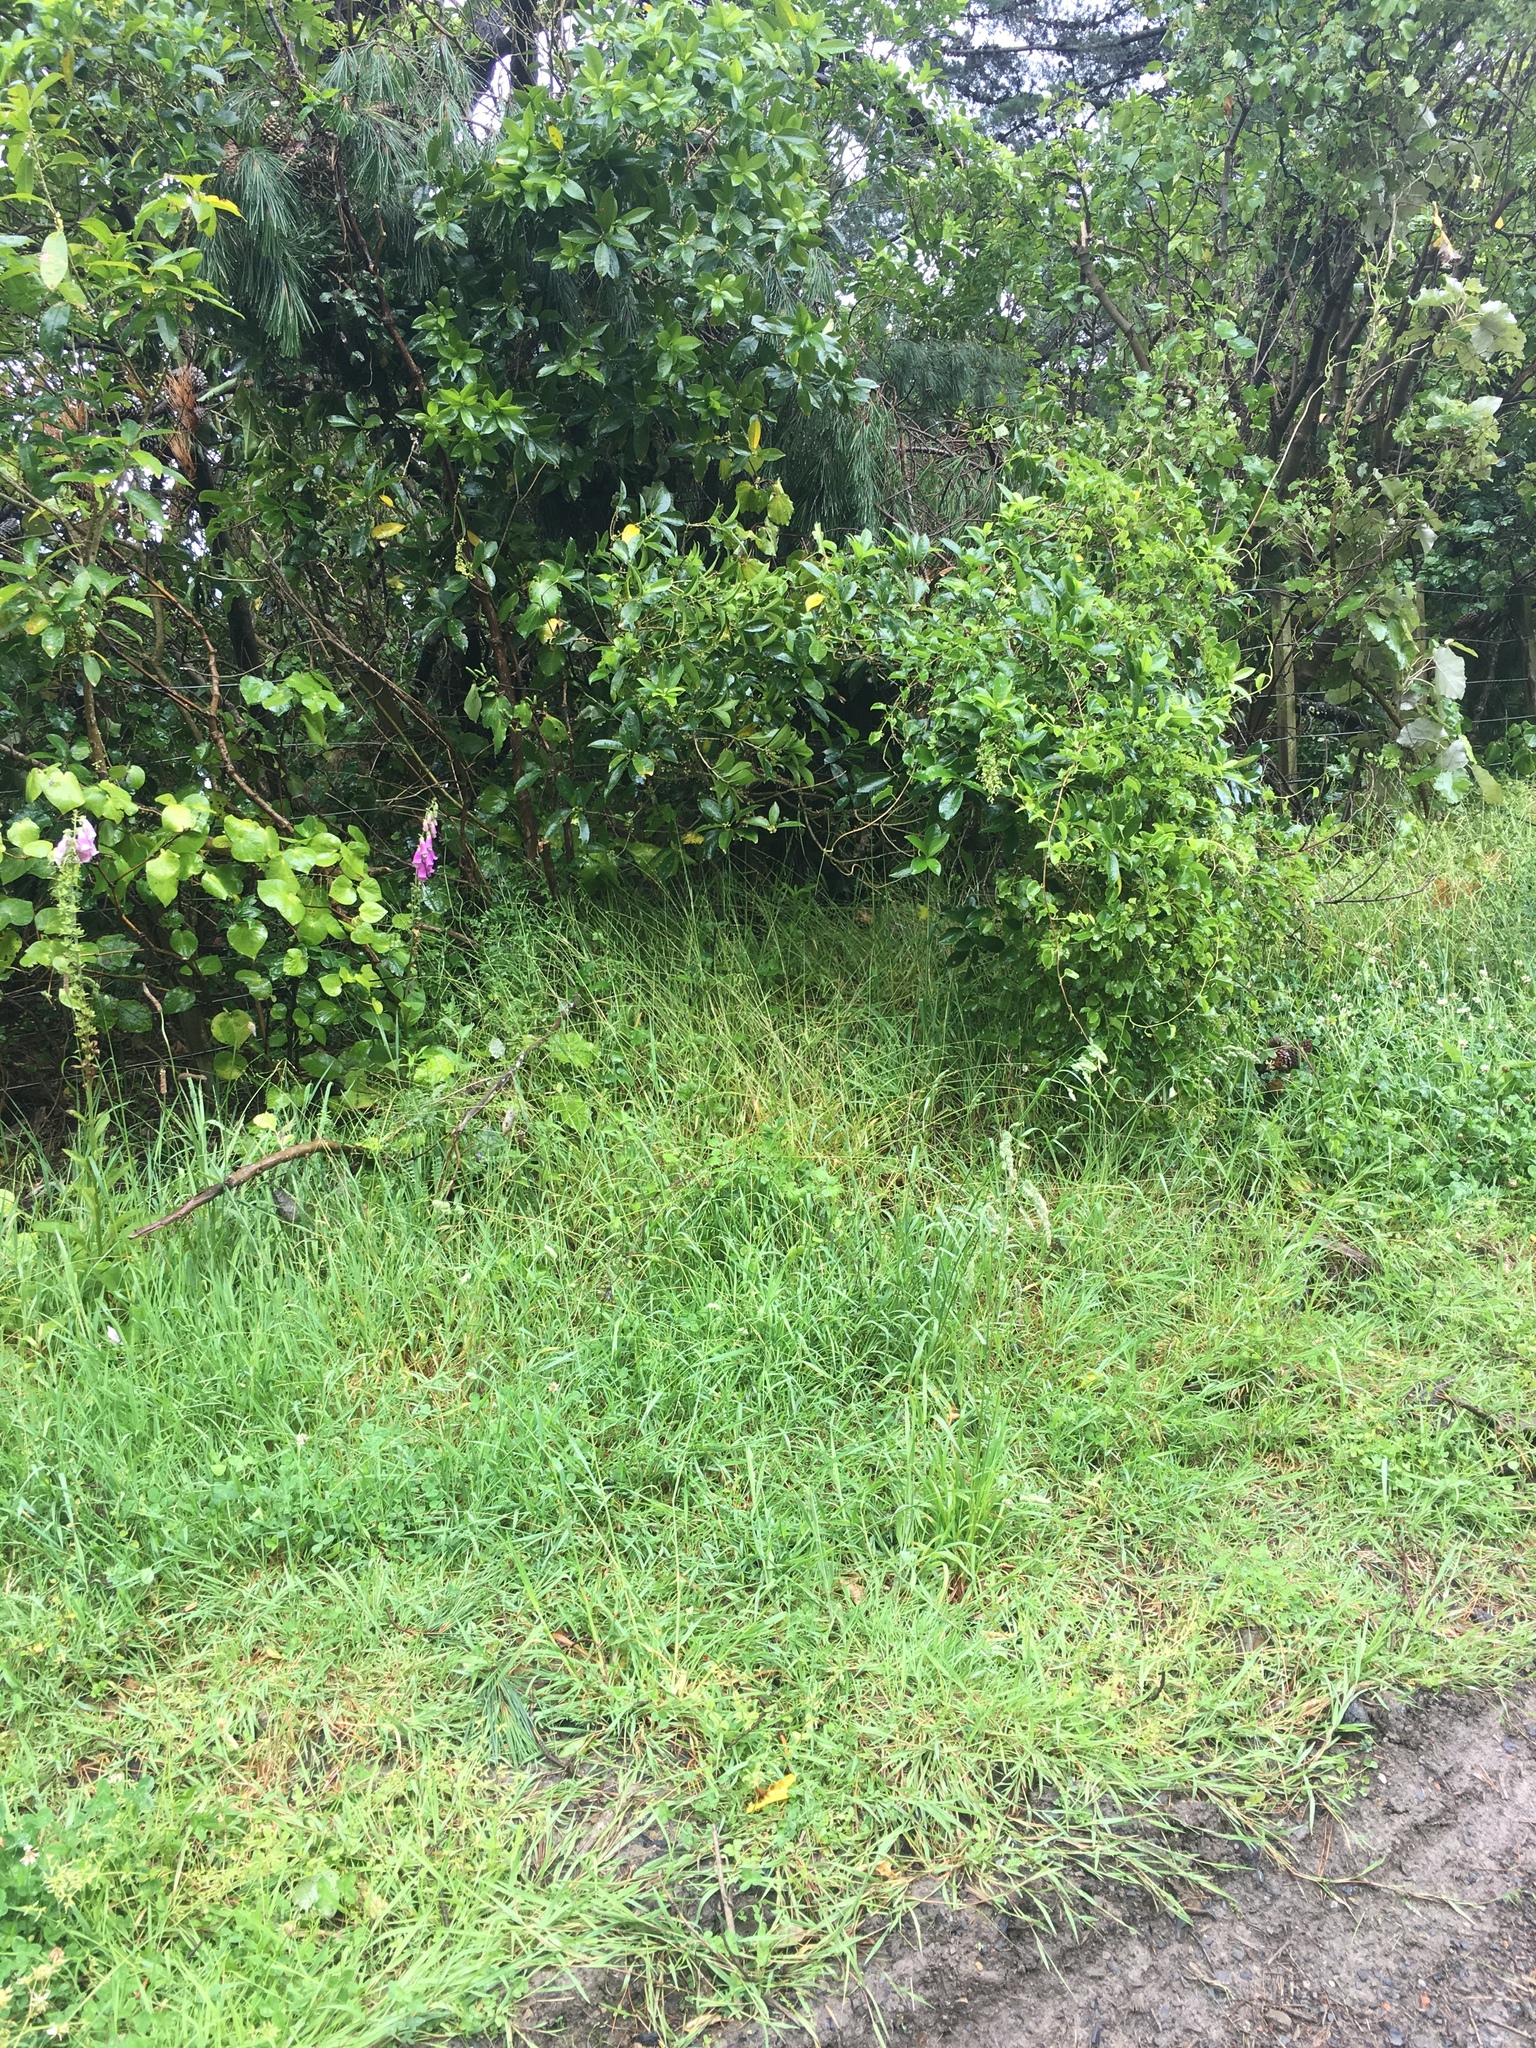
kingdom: Plantae
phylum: Tracheophyta
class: Magnoliopsida
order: Ranunculales
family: Ranunculaceae
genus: Clematis
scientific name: Clematis vitalba
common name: Evergreen clematis
